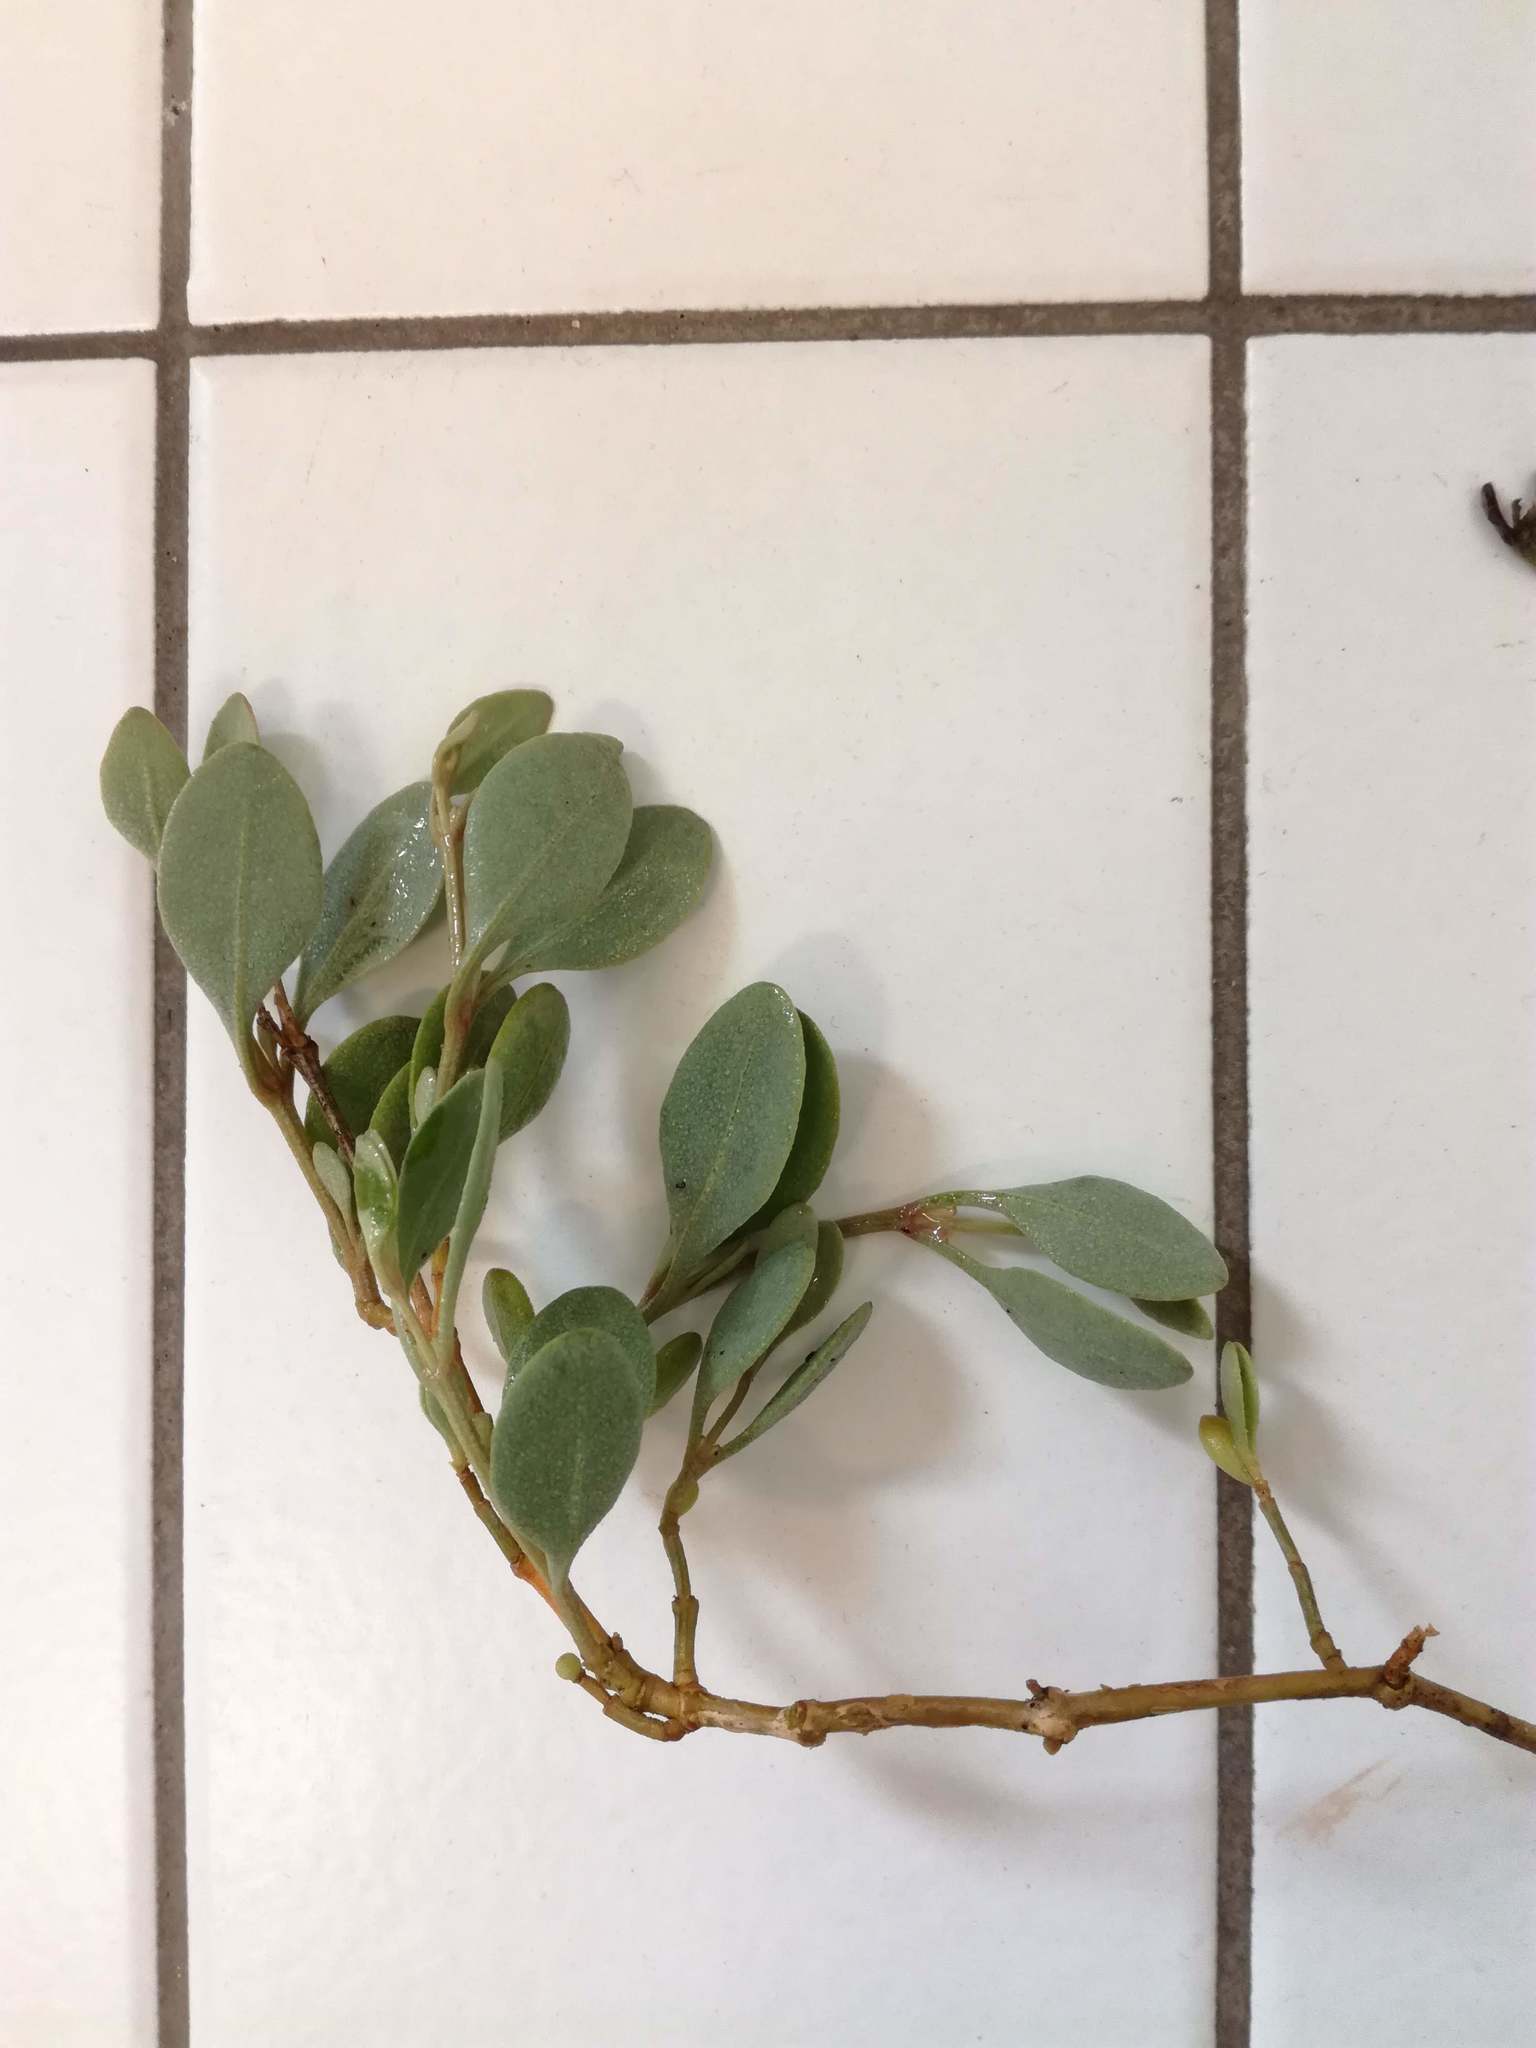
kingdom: Plantae
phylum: Tracheophyta
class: Magnoliopsida
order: Caryophyllales
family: Amaranthaceae
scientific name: Amaranthaceae
